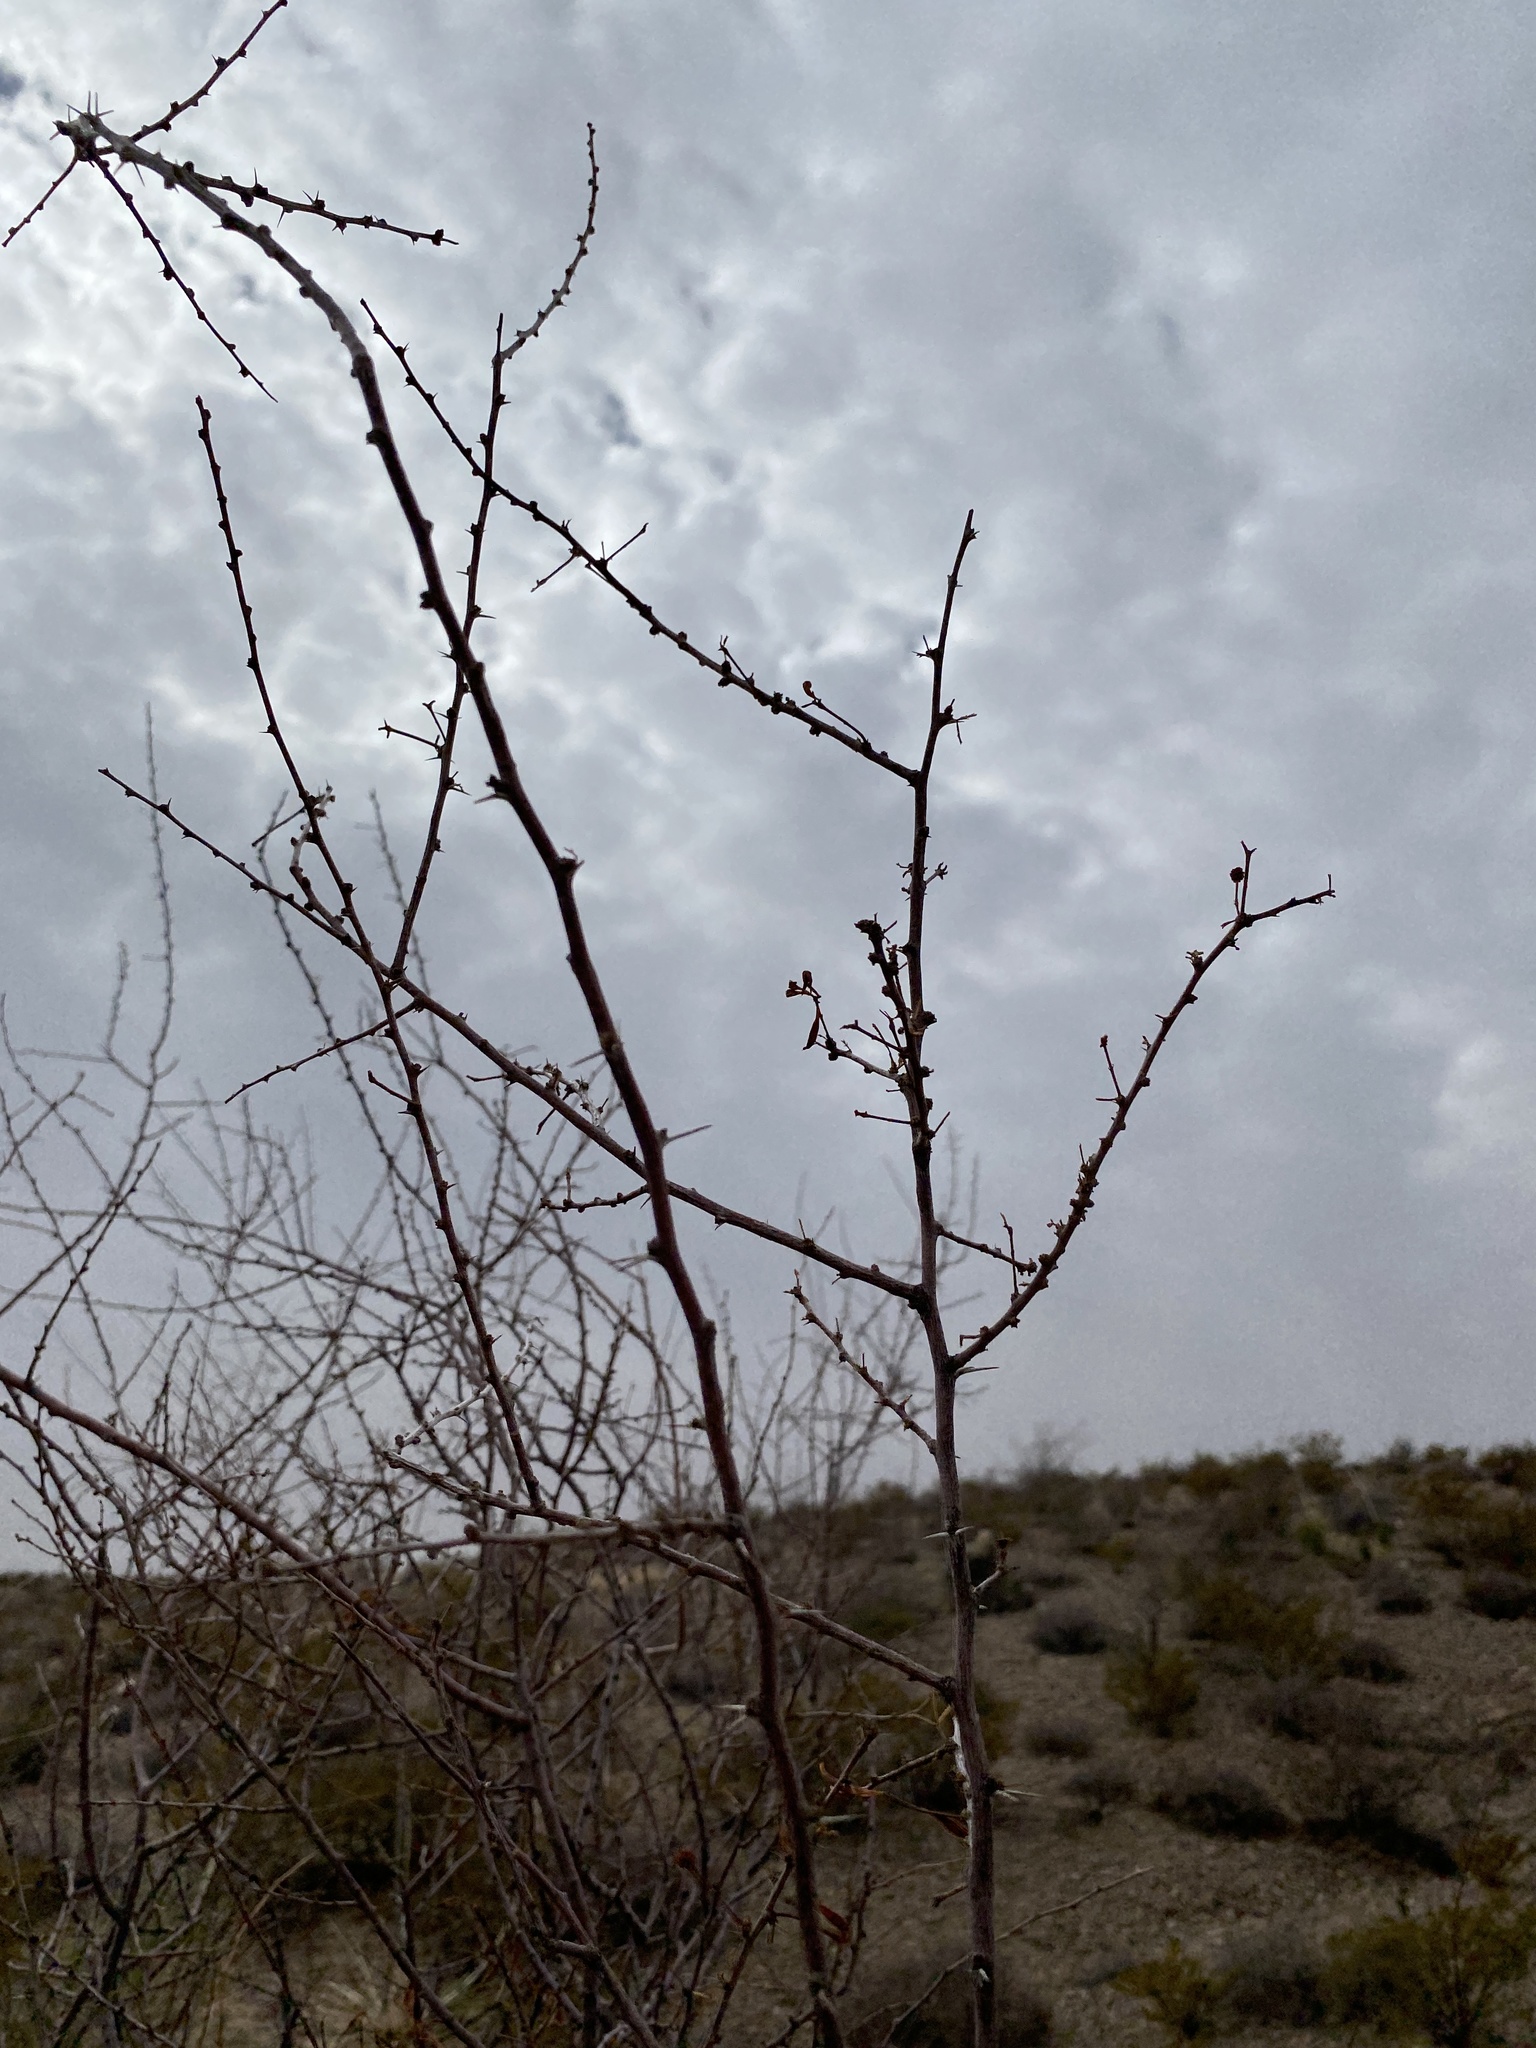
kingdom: Plantae
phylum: Tracheophyta
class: Magnoliopsida
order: Fabales
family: Fabaceae
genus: Vachellia
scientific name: Vachellia constricta
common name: Mescat acacia
